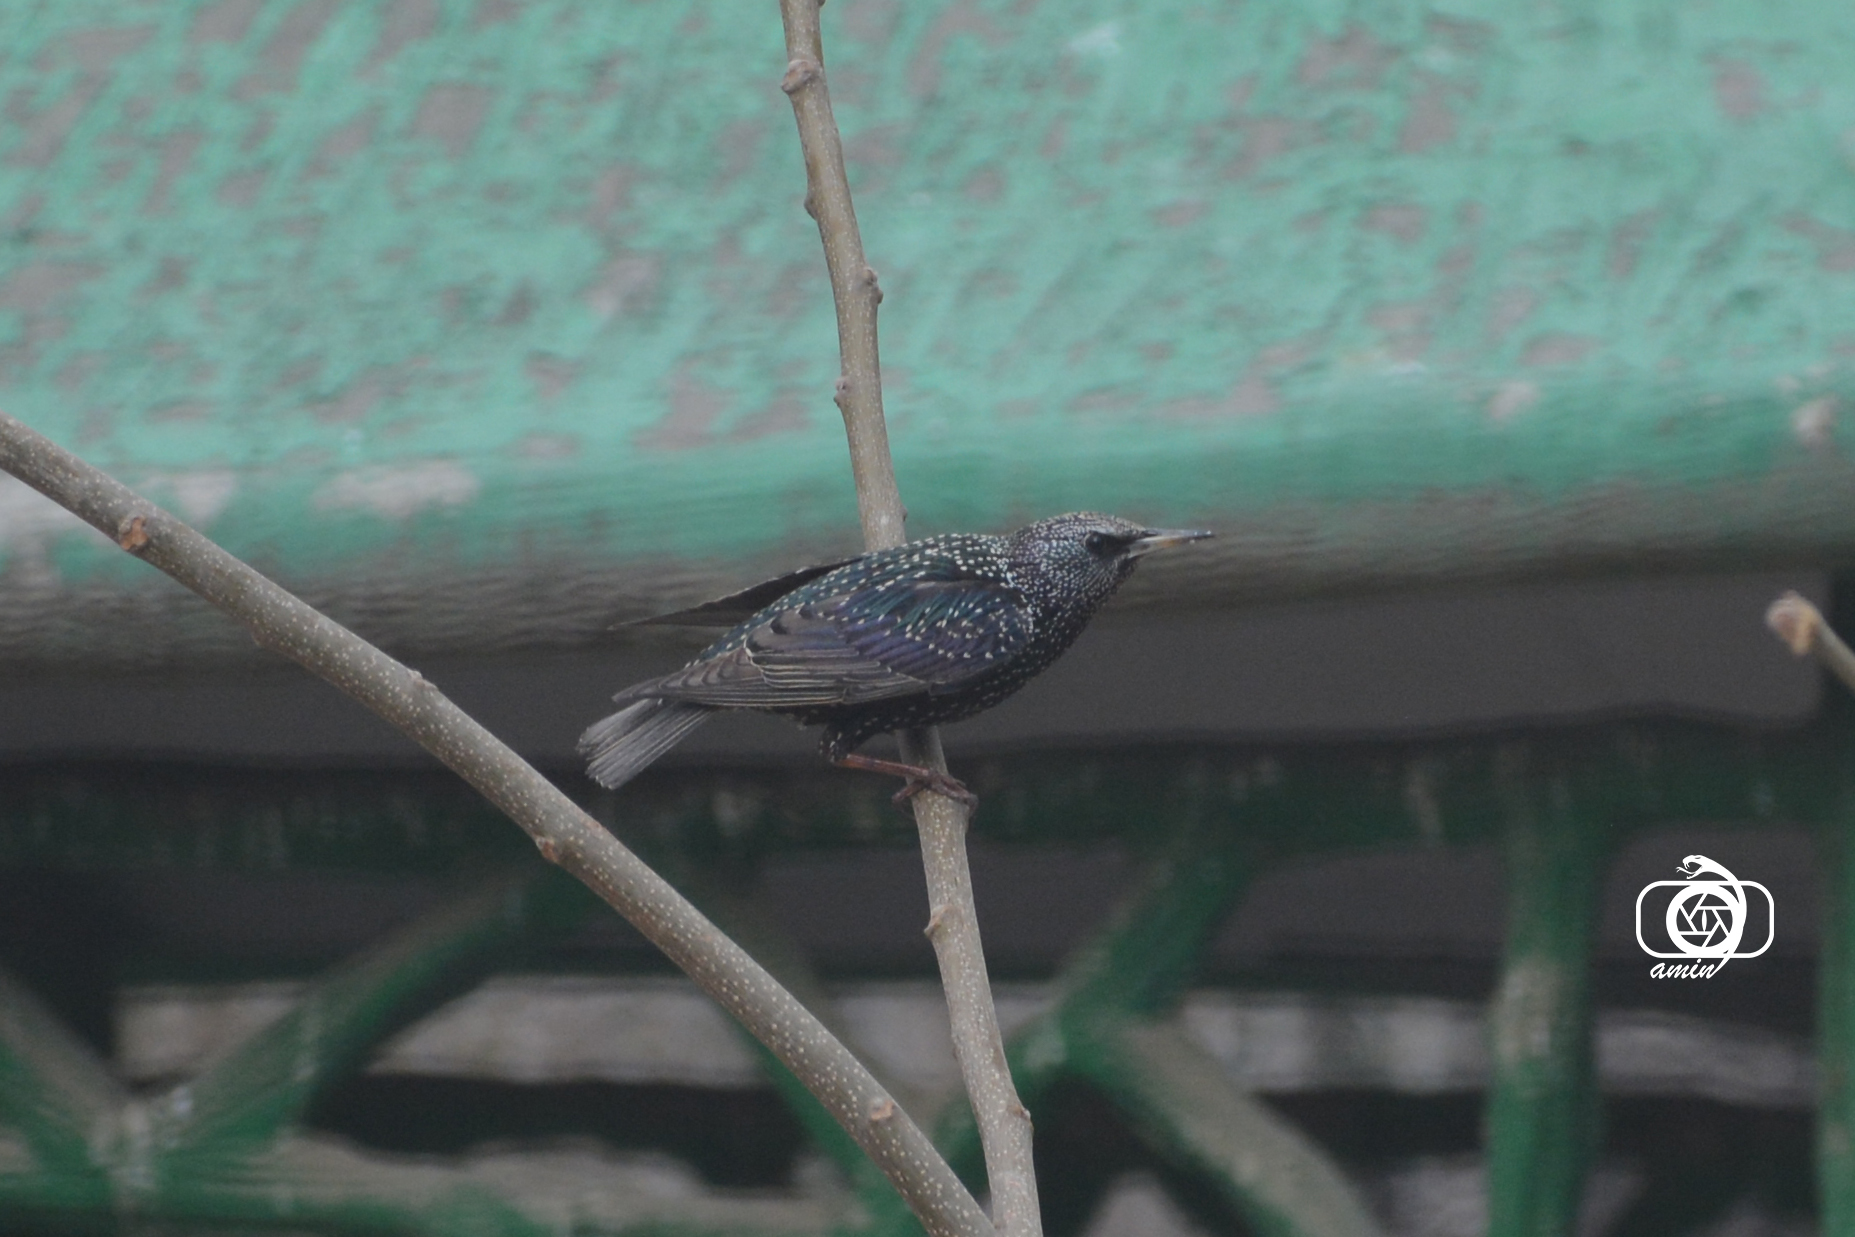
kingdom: Animalia
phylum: Chordata
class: Aves
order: Passeriformes
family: Sturnidae
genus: Sturnus
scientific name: Sturnus vulgaris
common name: Common starling
